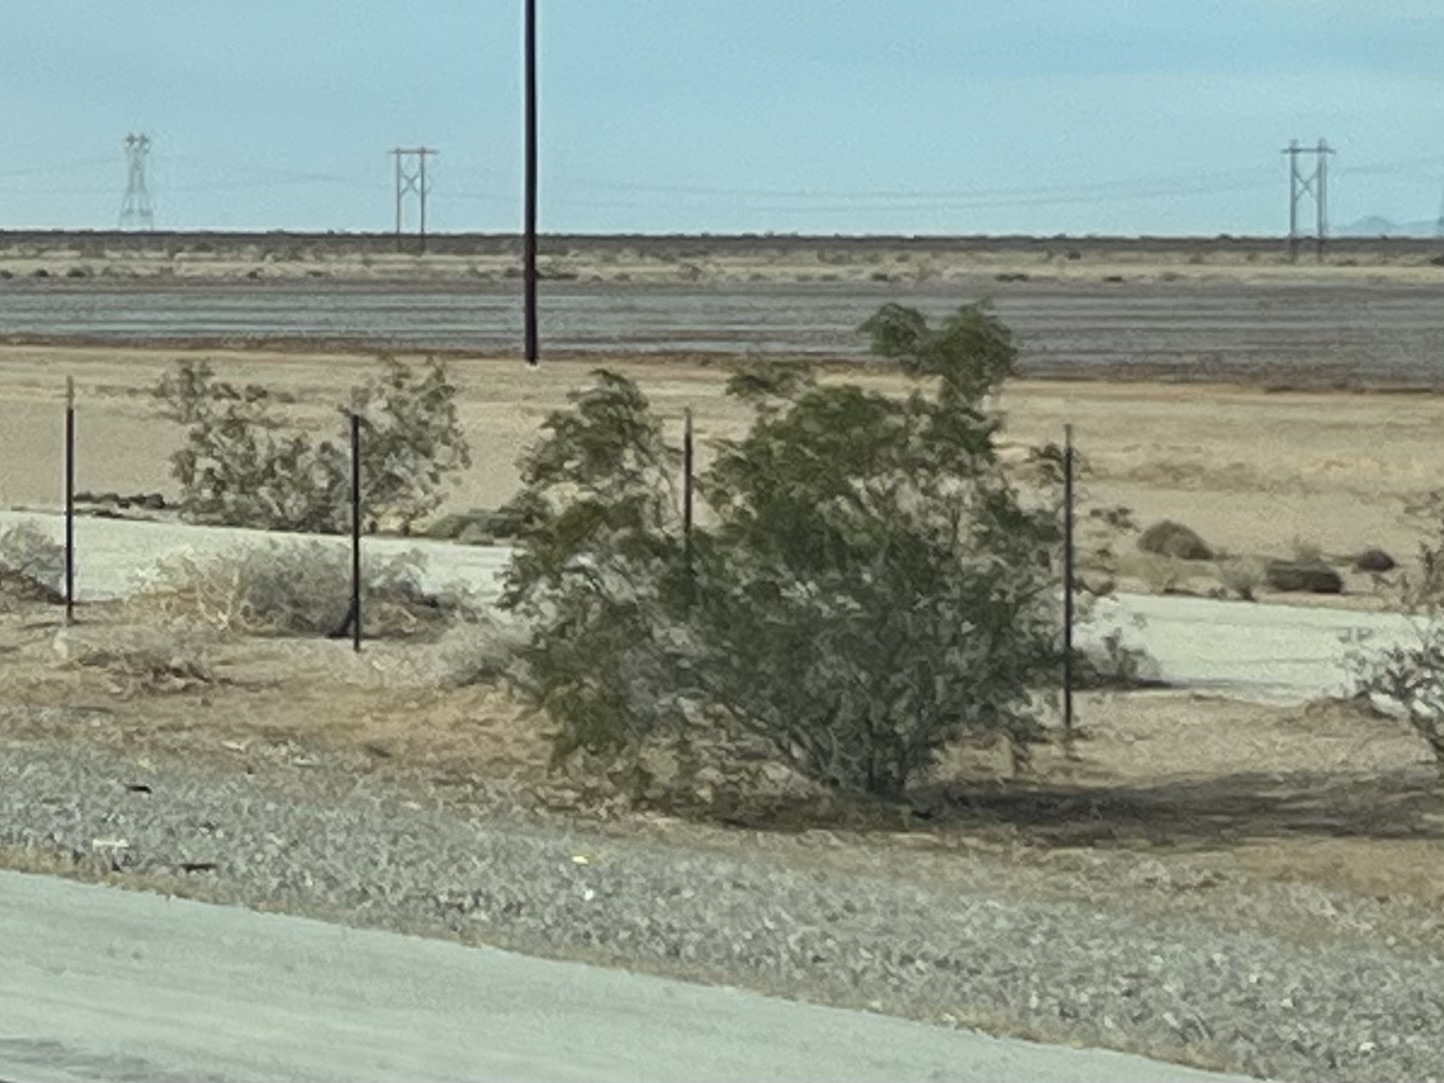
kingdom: Plantae
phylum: Tracheophyta
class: Magnoliopsida
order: Zygophyllales
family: Zygophyllaceae
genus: Larrea
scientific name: Larrea tridentata
